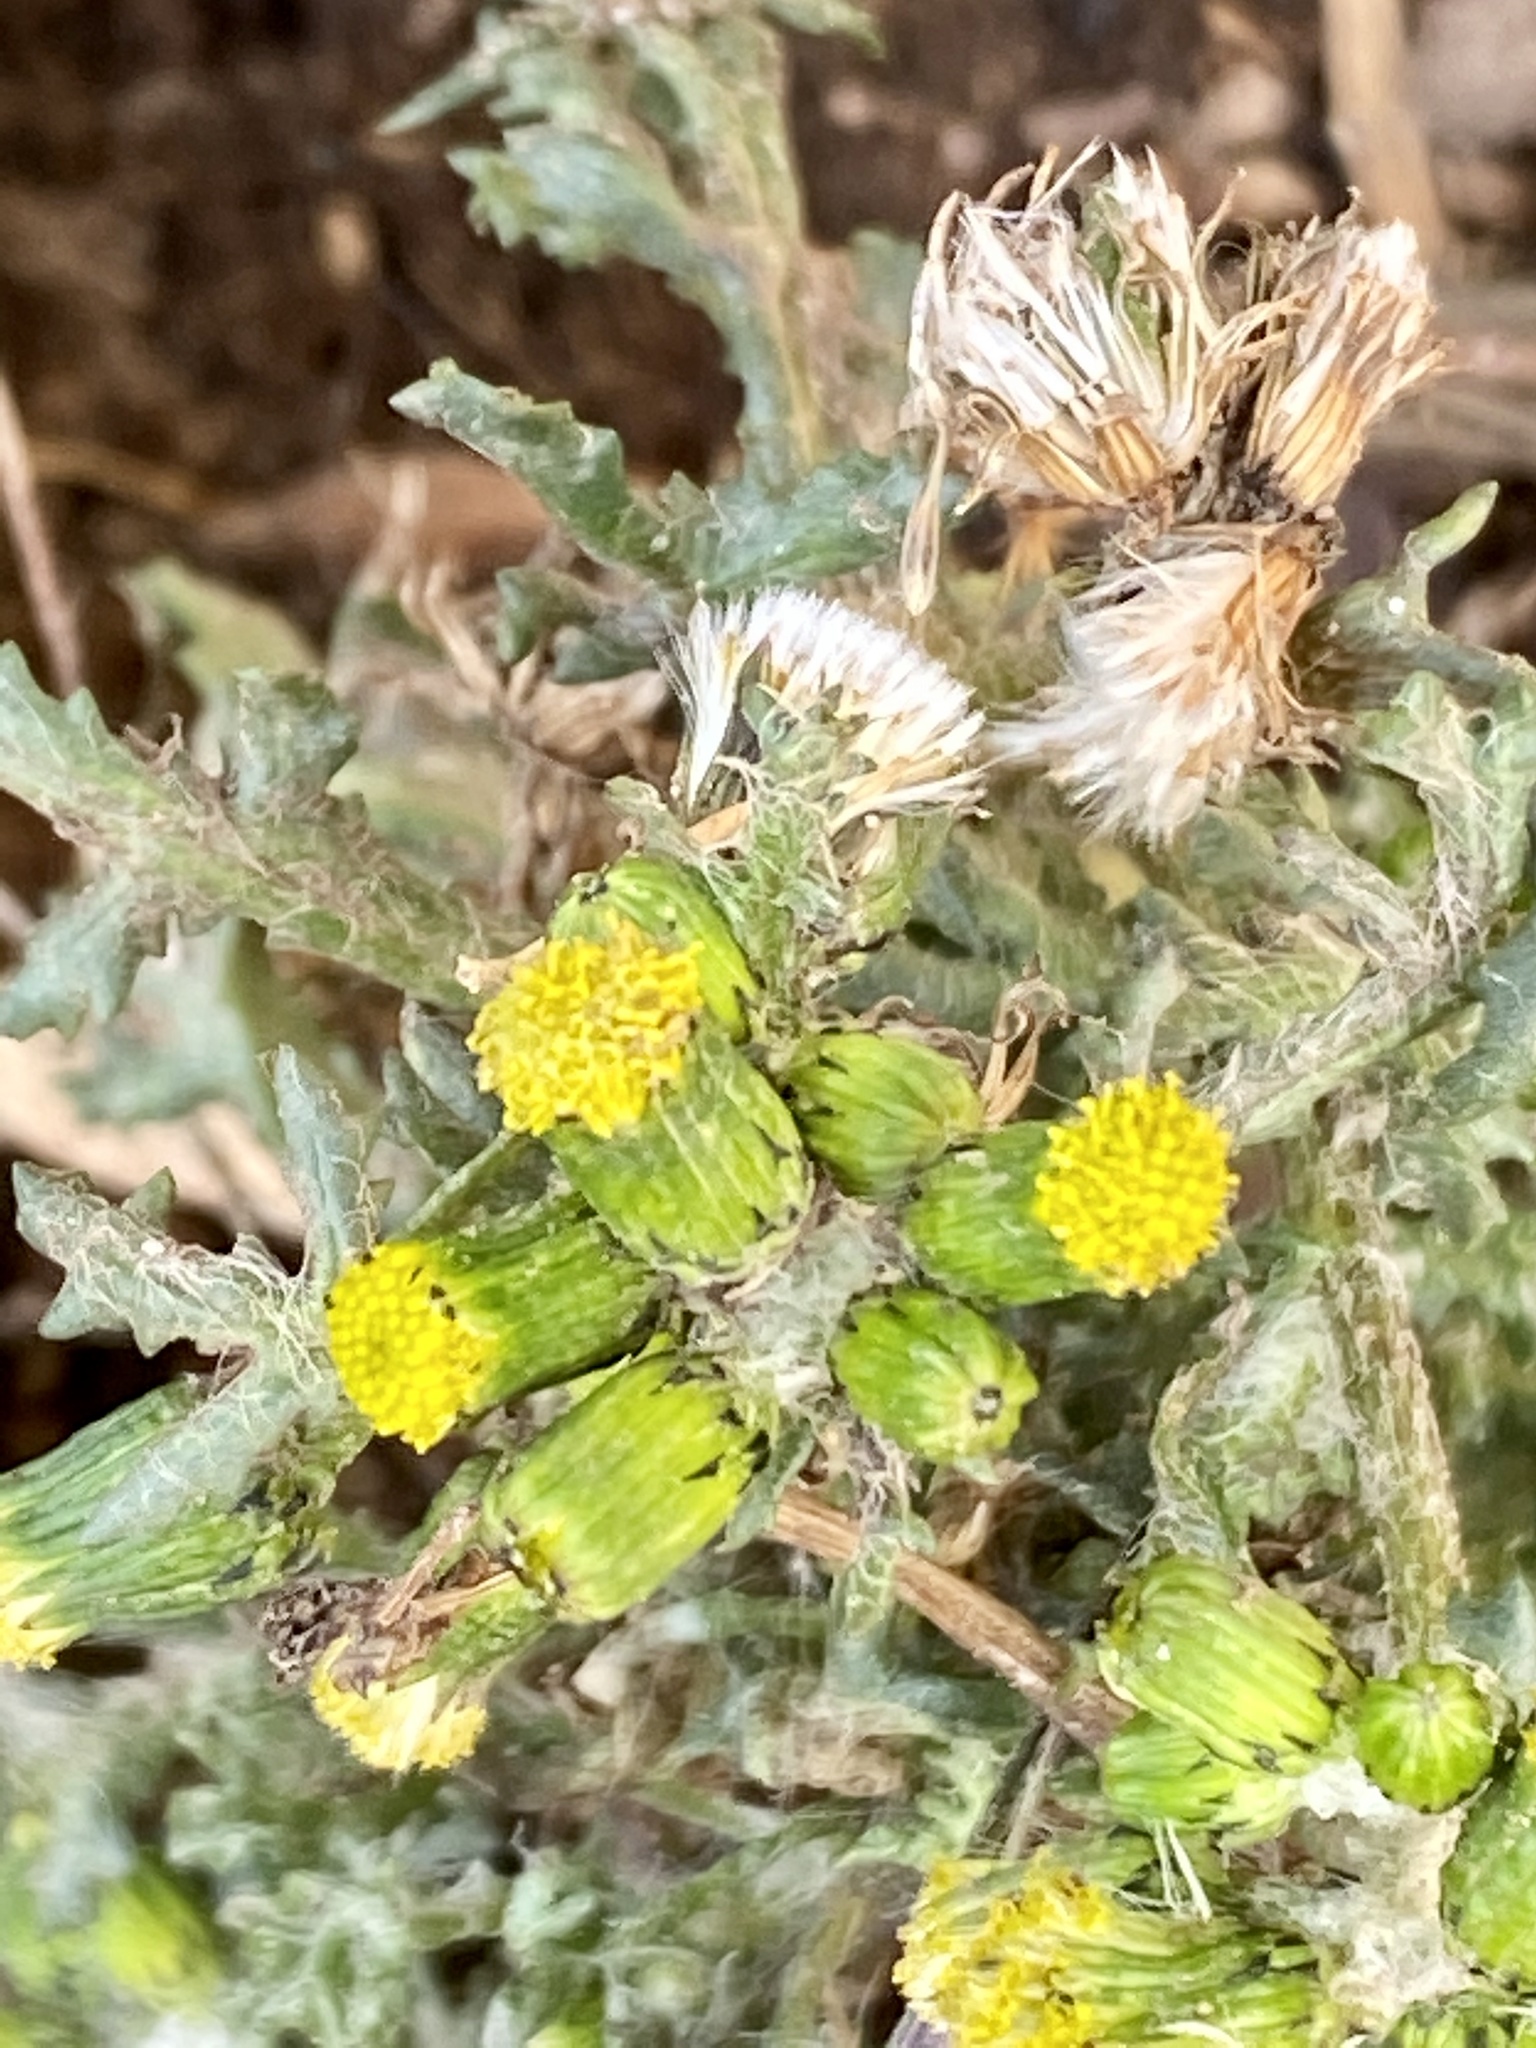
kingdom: Plantae
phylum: Tracheophyta
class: Magnoliopsida
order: Asterales
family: Asteraceae
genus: Senecio
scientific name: Senecio vulgaris
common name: Old-man-in-the-spring
